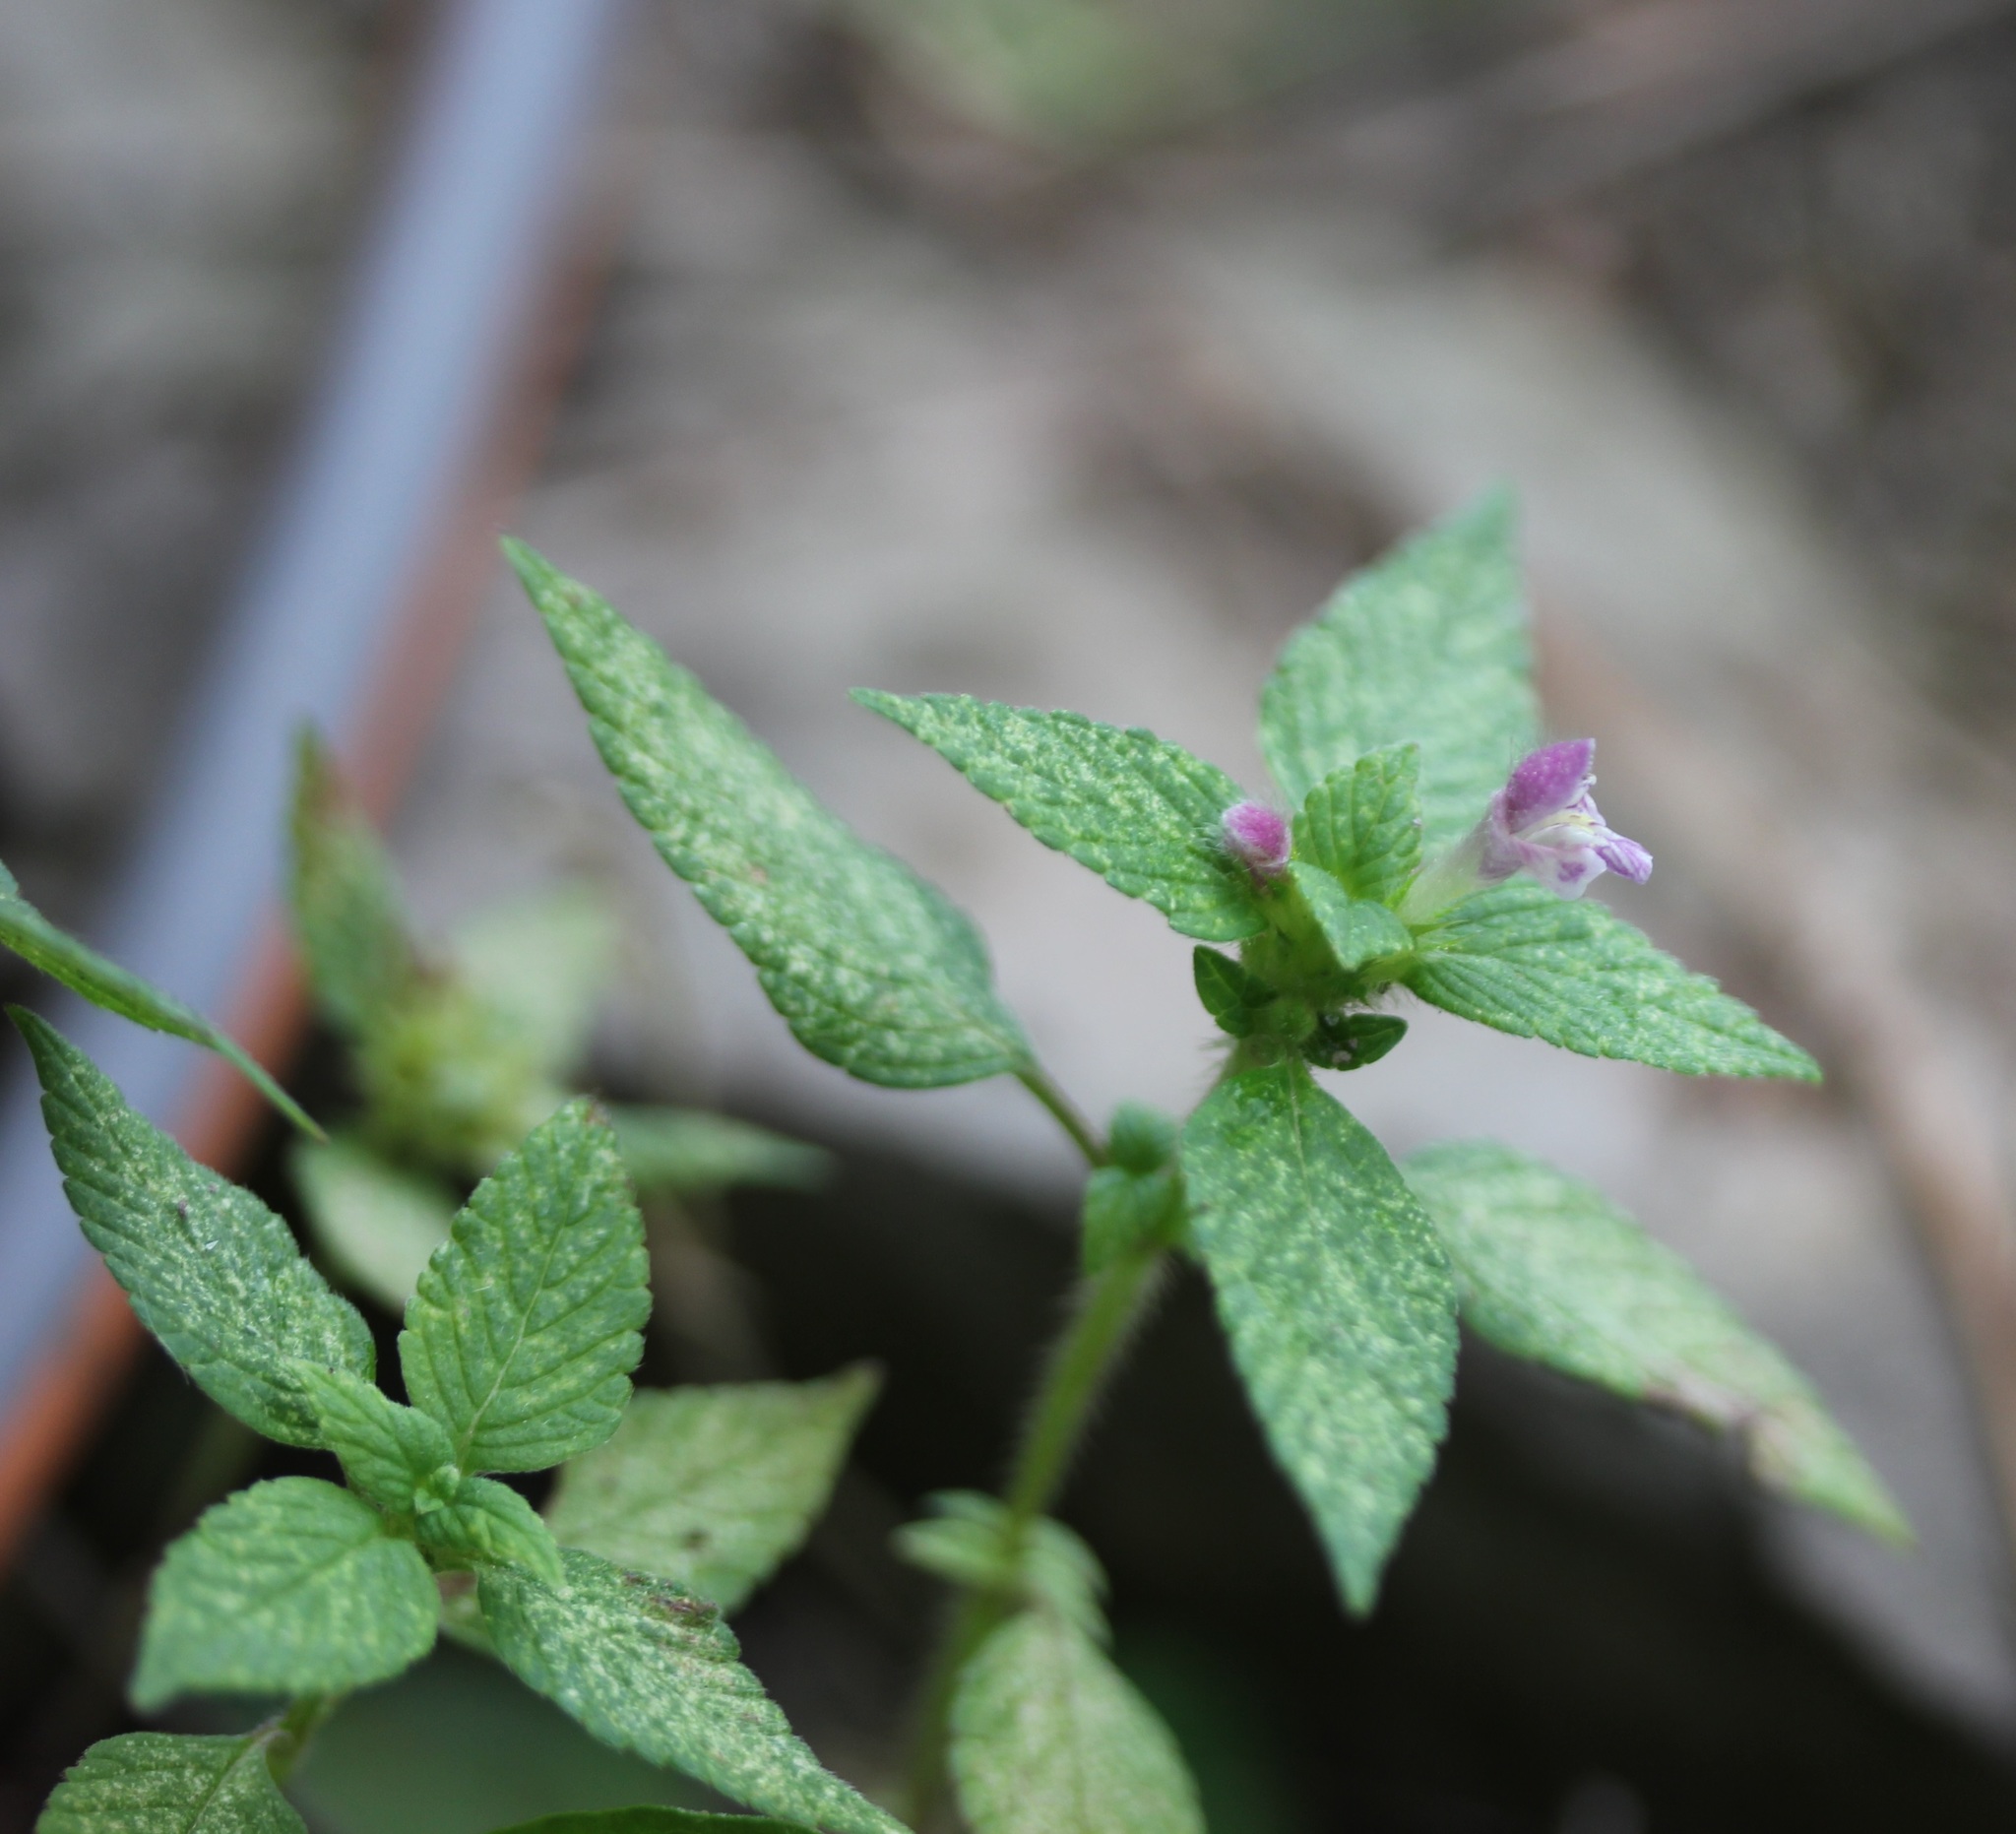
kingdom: Plantae
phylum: Tracheophyta
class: Magnoliopsida
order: Lamiales
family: Lamiaceae
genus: Galeopsis
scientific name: Galeopsis tetrahit
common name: Common hemp-nettle
